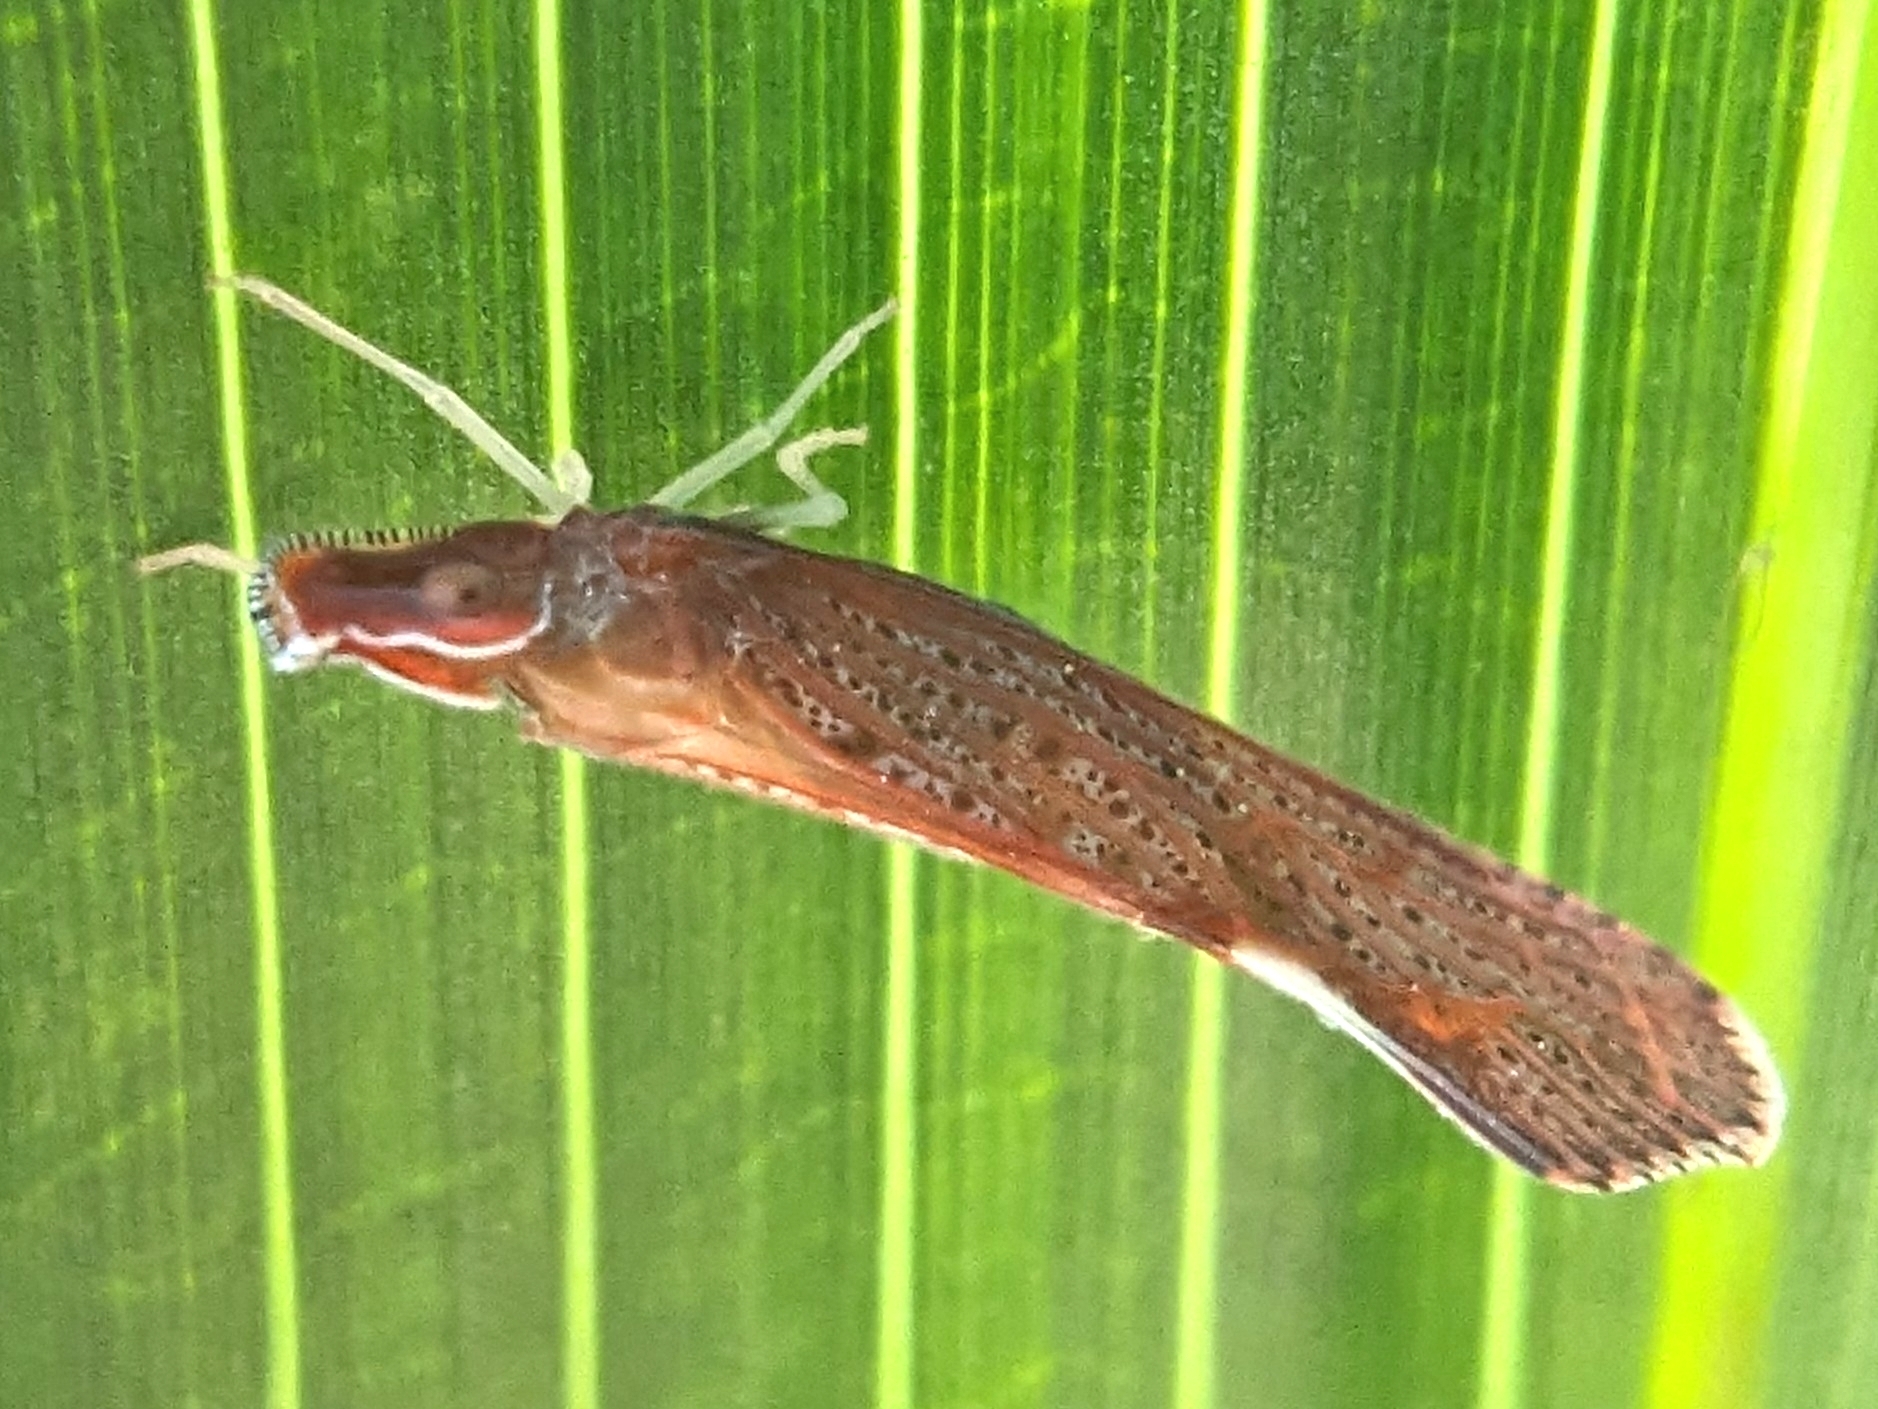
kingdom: Animalia
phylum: Arthropoda
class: Insecta
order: Hemiptera
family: Derbidae
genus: Apache
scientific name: Apache degeeri
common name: Red-fanned planthopper
